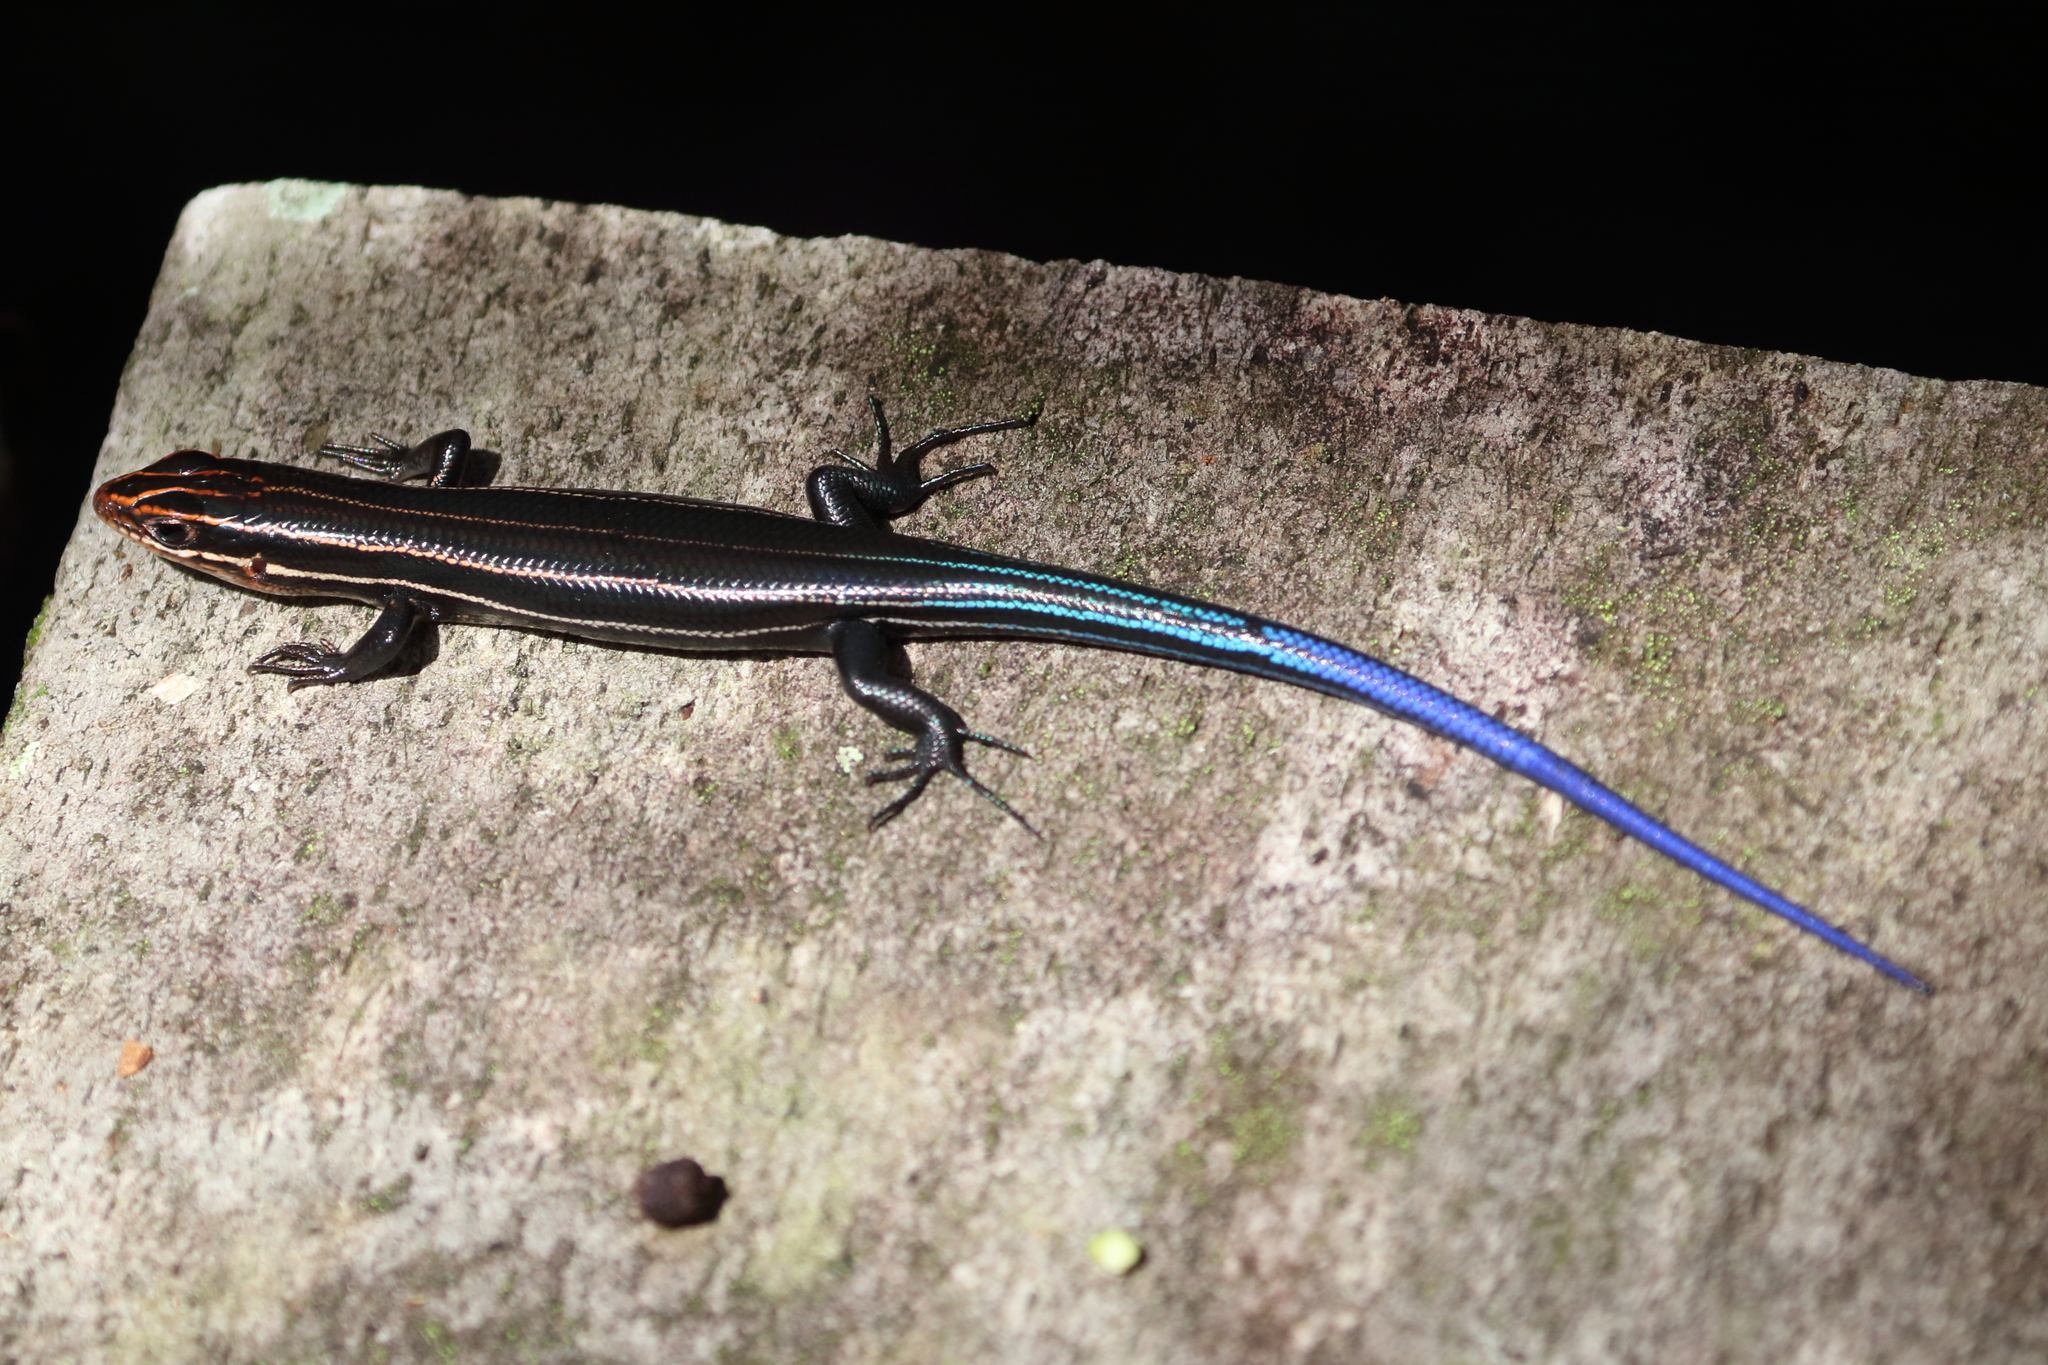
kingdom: Animalia
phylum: Chordata
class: Squamata
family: Scincidae
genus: Plestiodon
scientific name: Plestiodon inexpectatus
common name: Southeastern five-lined skink
